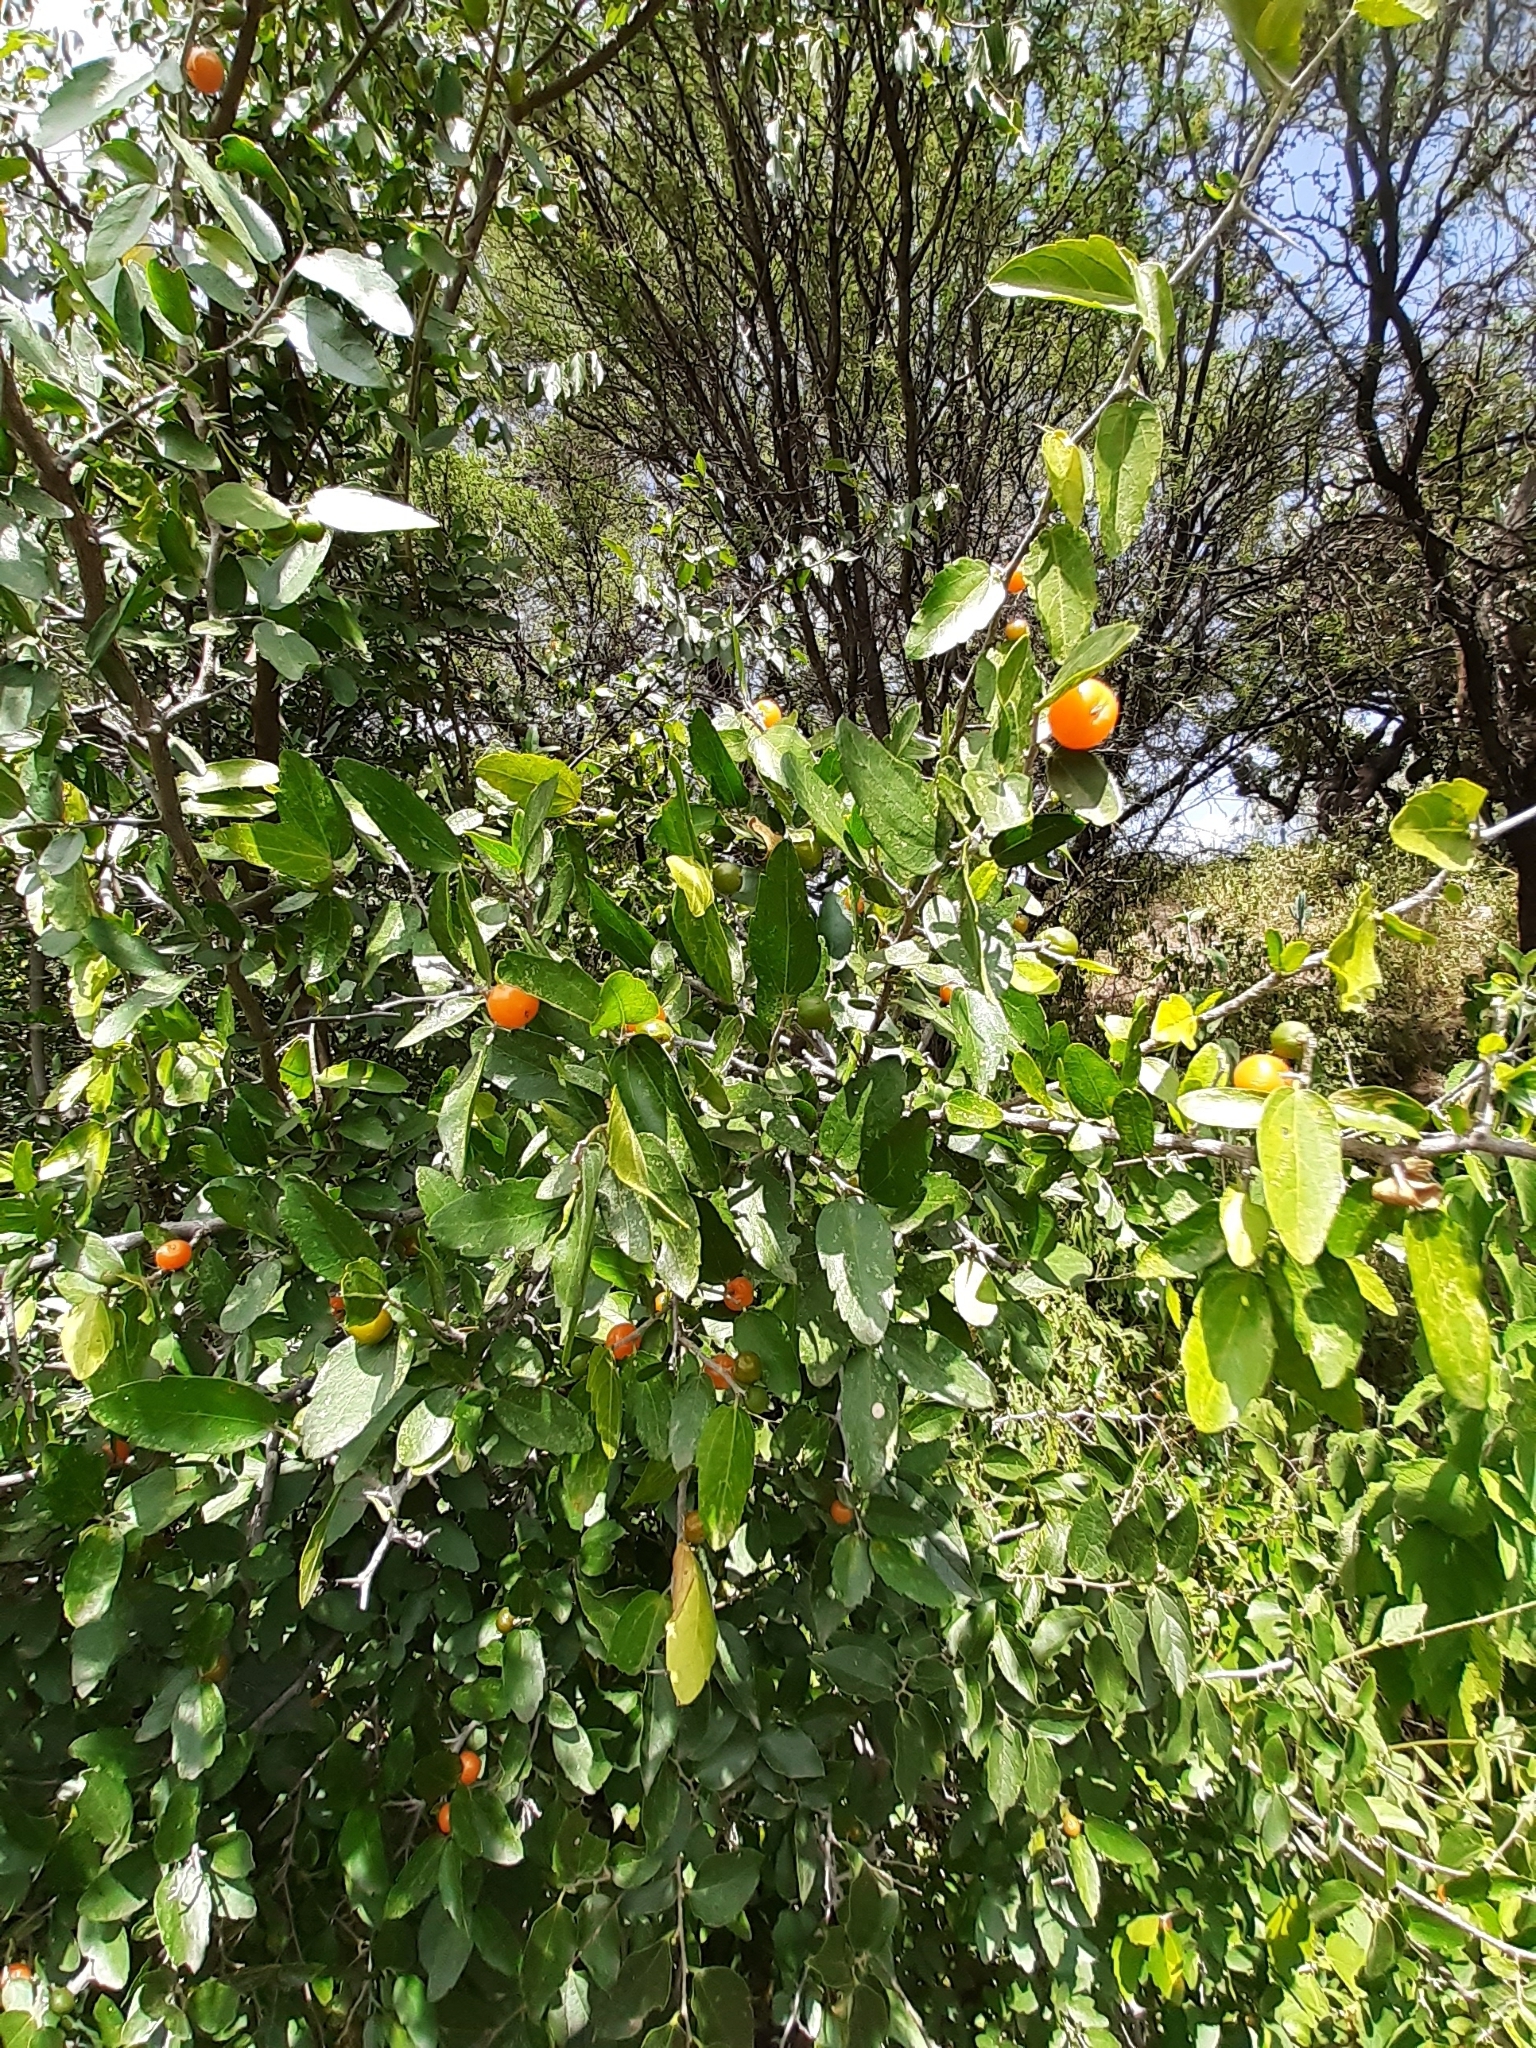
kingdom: Plantae
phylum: Tracheophyta
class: Magnoliopsida
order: Rosales
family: Cannabaceae
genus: Celtis
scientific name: Celtis pallida
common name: Desert hackberry
